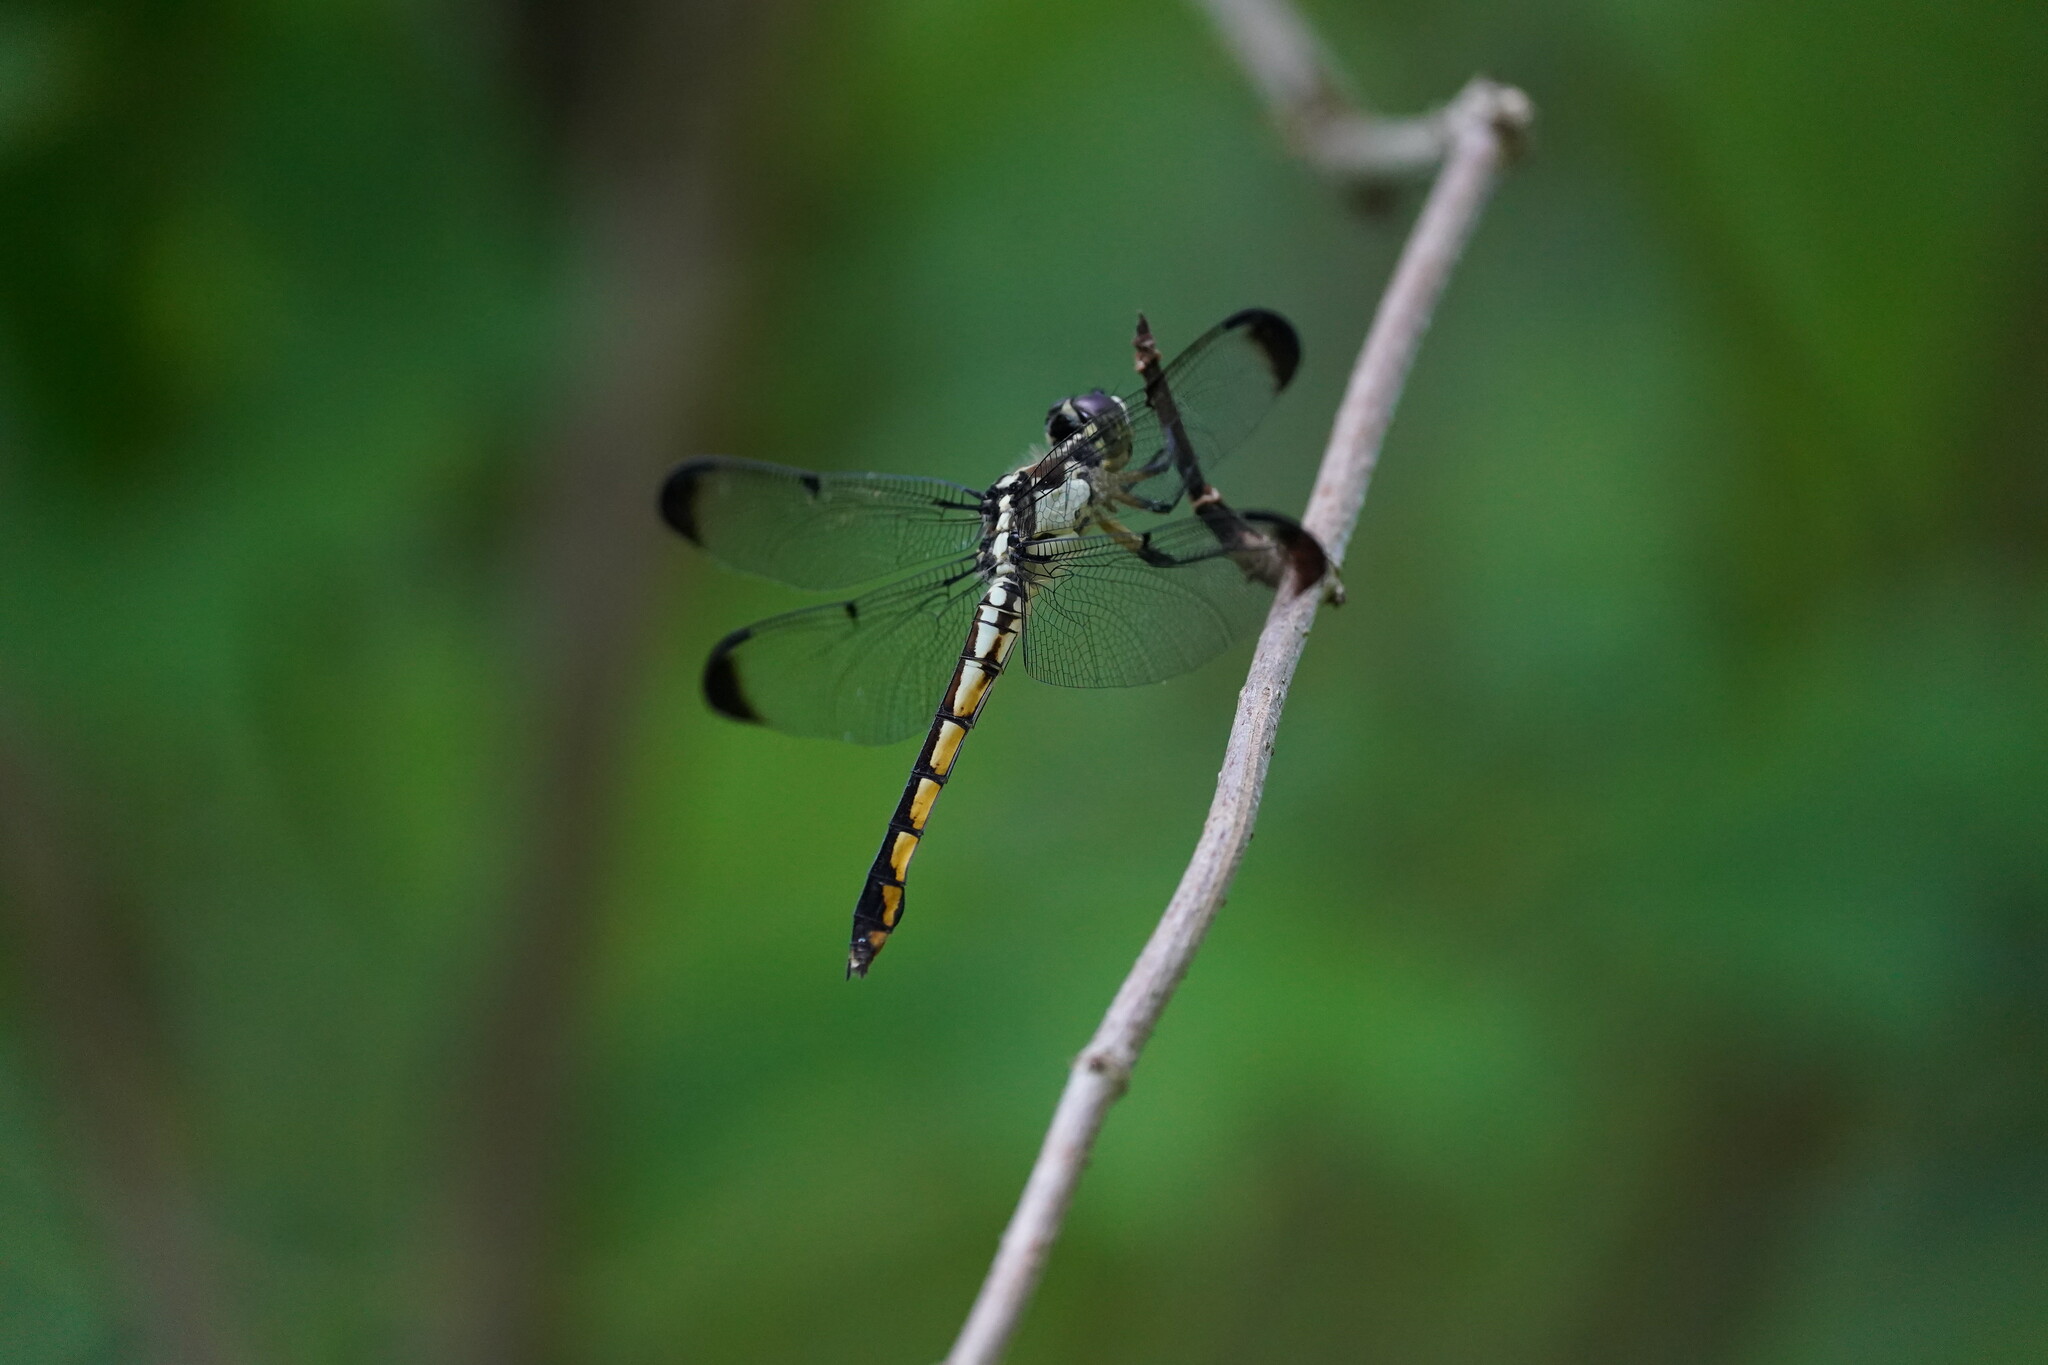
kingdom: Animalia
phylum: Arthropoda
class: Insecta
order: Odonata
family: Libellulidae
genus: Libellula
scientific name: Libellula vibrans
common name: Great blue skimmer
